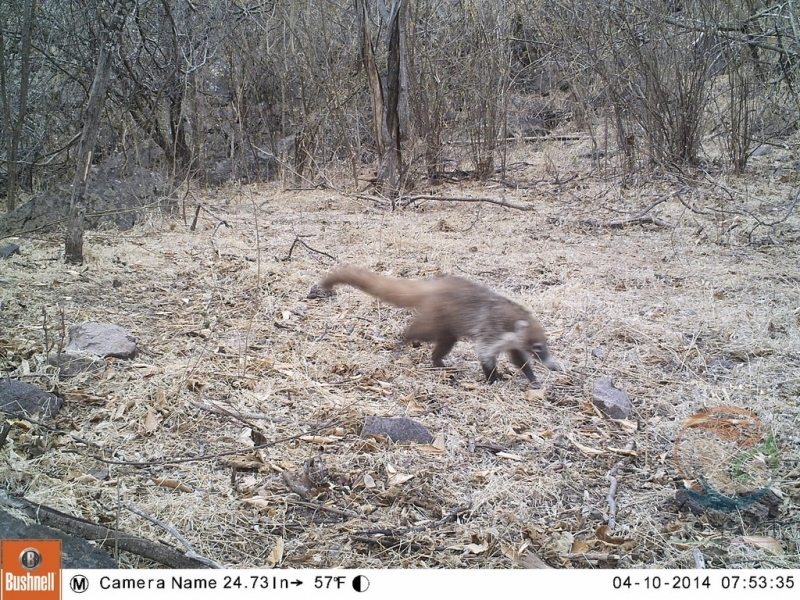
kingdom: Animalia
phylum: Chordata
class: Mammalia
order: Carnivora
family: Procyonidae
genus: Nasua
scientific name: Nasua narica
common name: White-nosed coati
